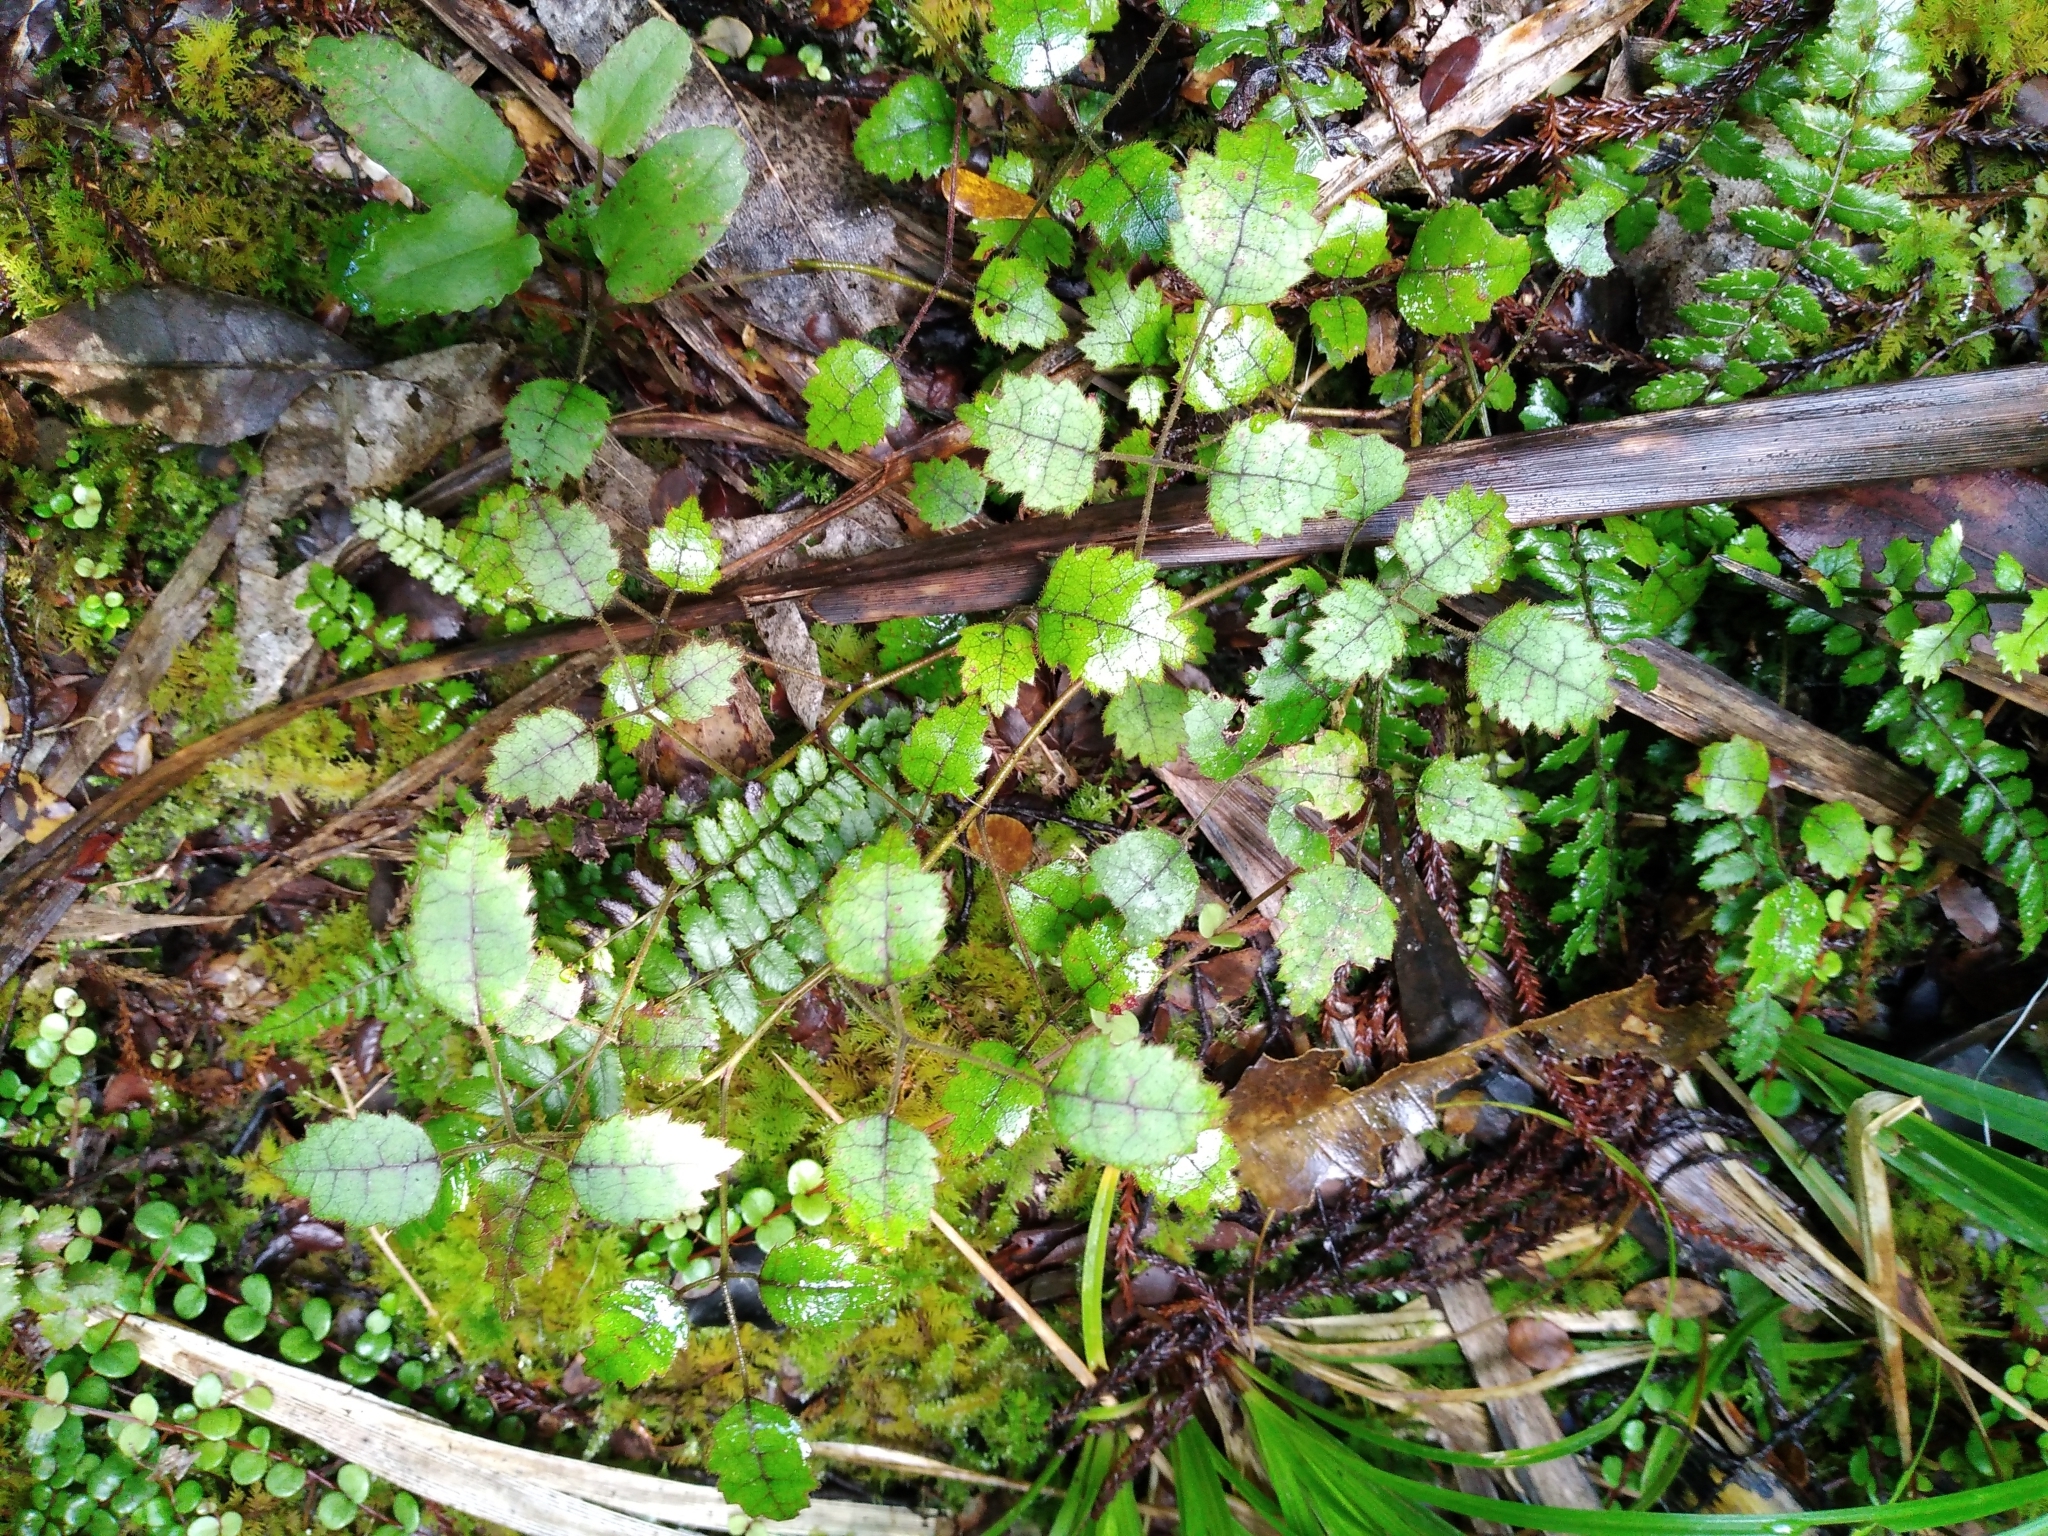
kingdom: Plantae
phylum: Tracheophyta
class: Magnoliopsida
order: Rosales
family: Rosaceae
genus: Rubus
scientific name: Rubus australis
